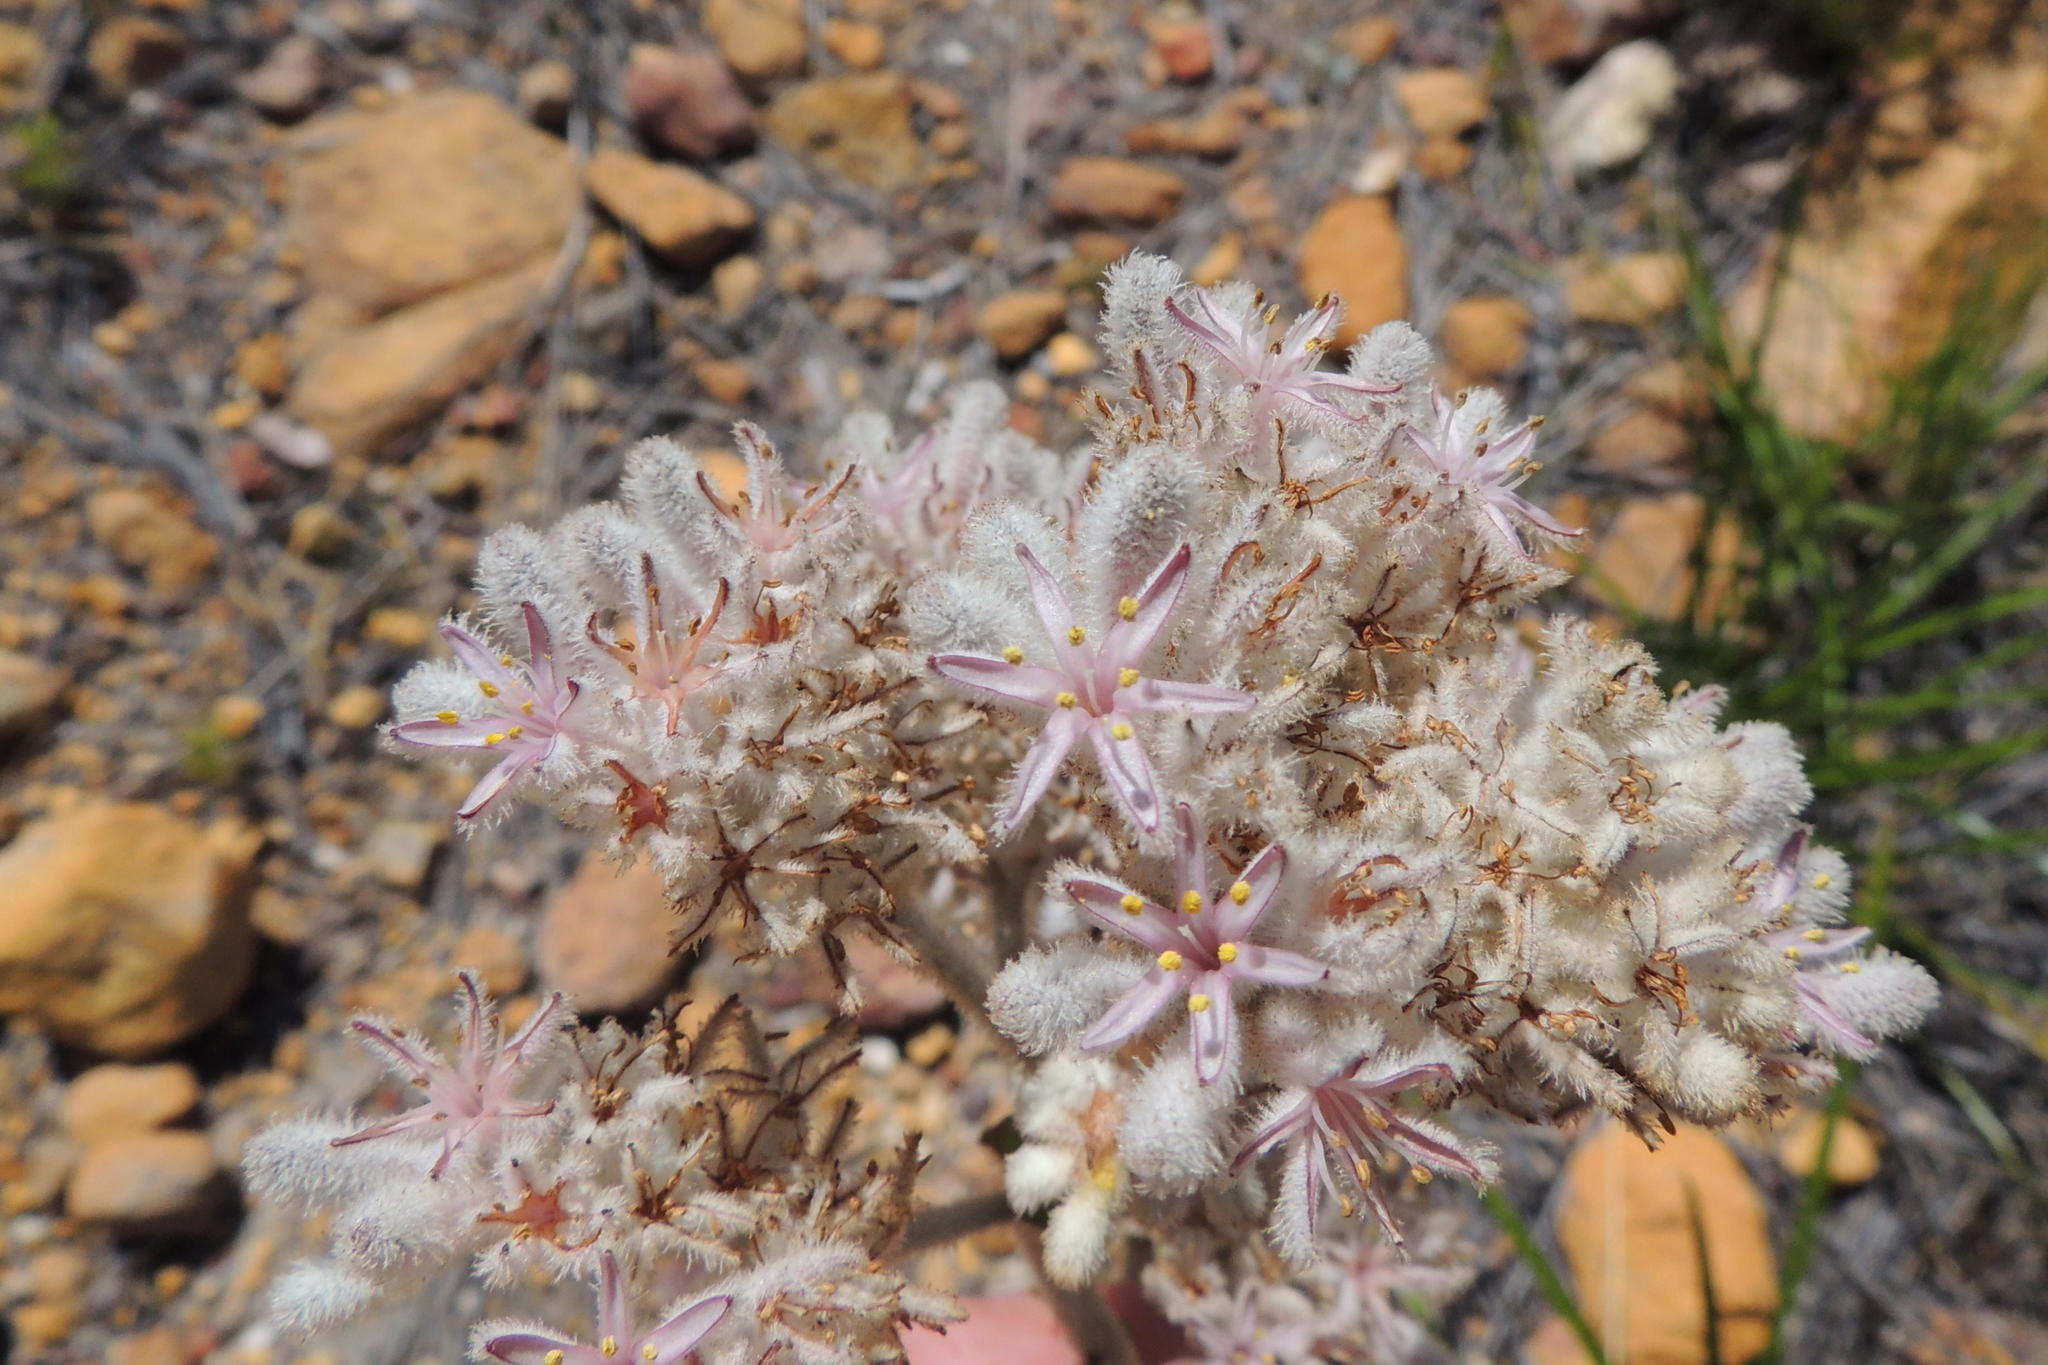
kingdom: Plantae
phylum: Tracheophyta
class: Liliopsida
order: Asparagales
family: Lanariaceae
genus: Lanaria
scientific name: Lanaria lanata
